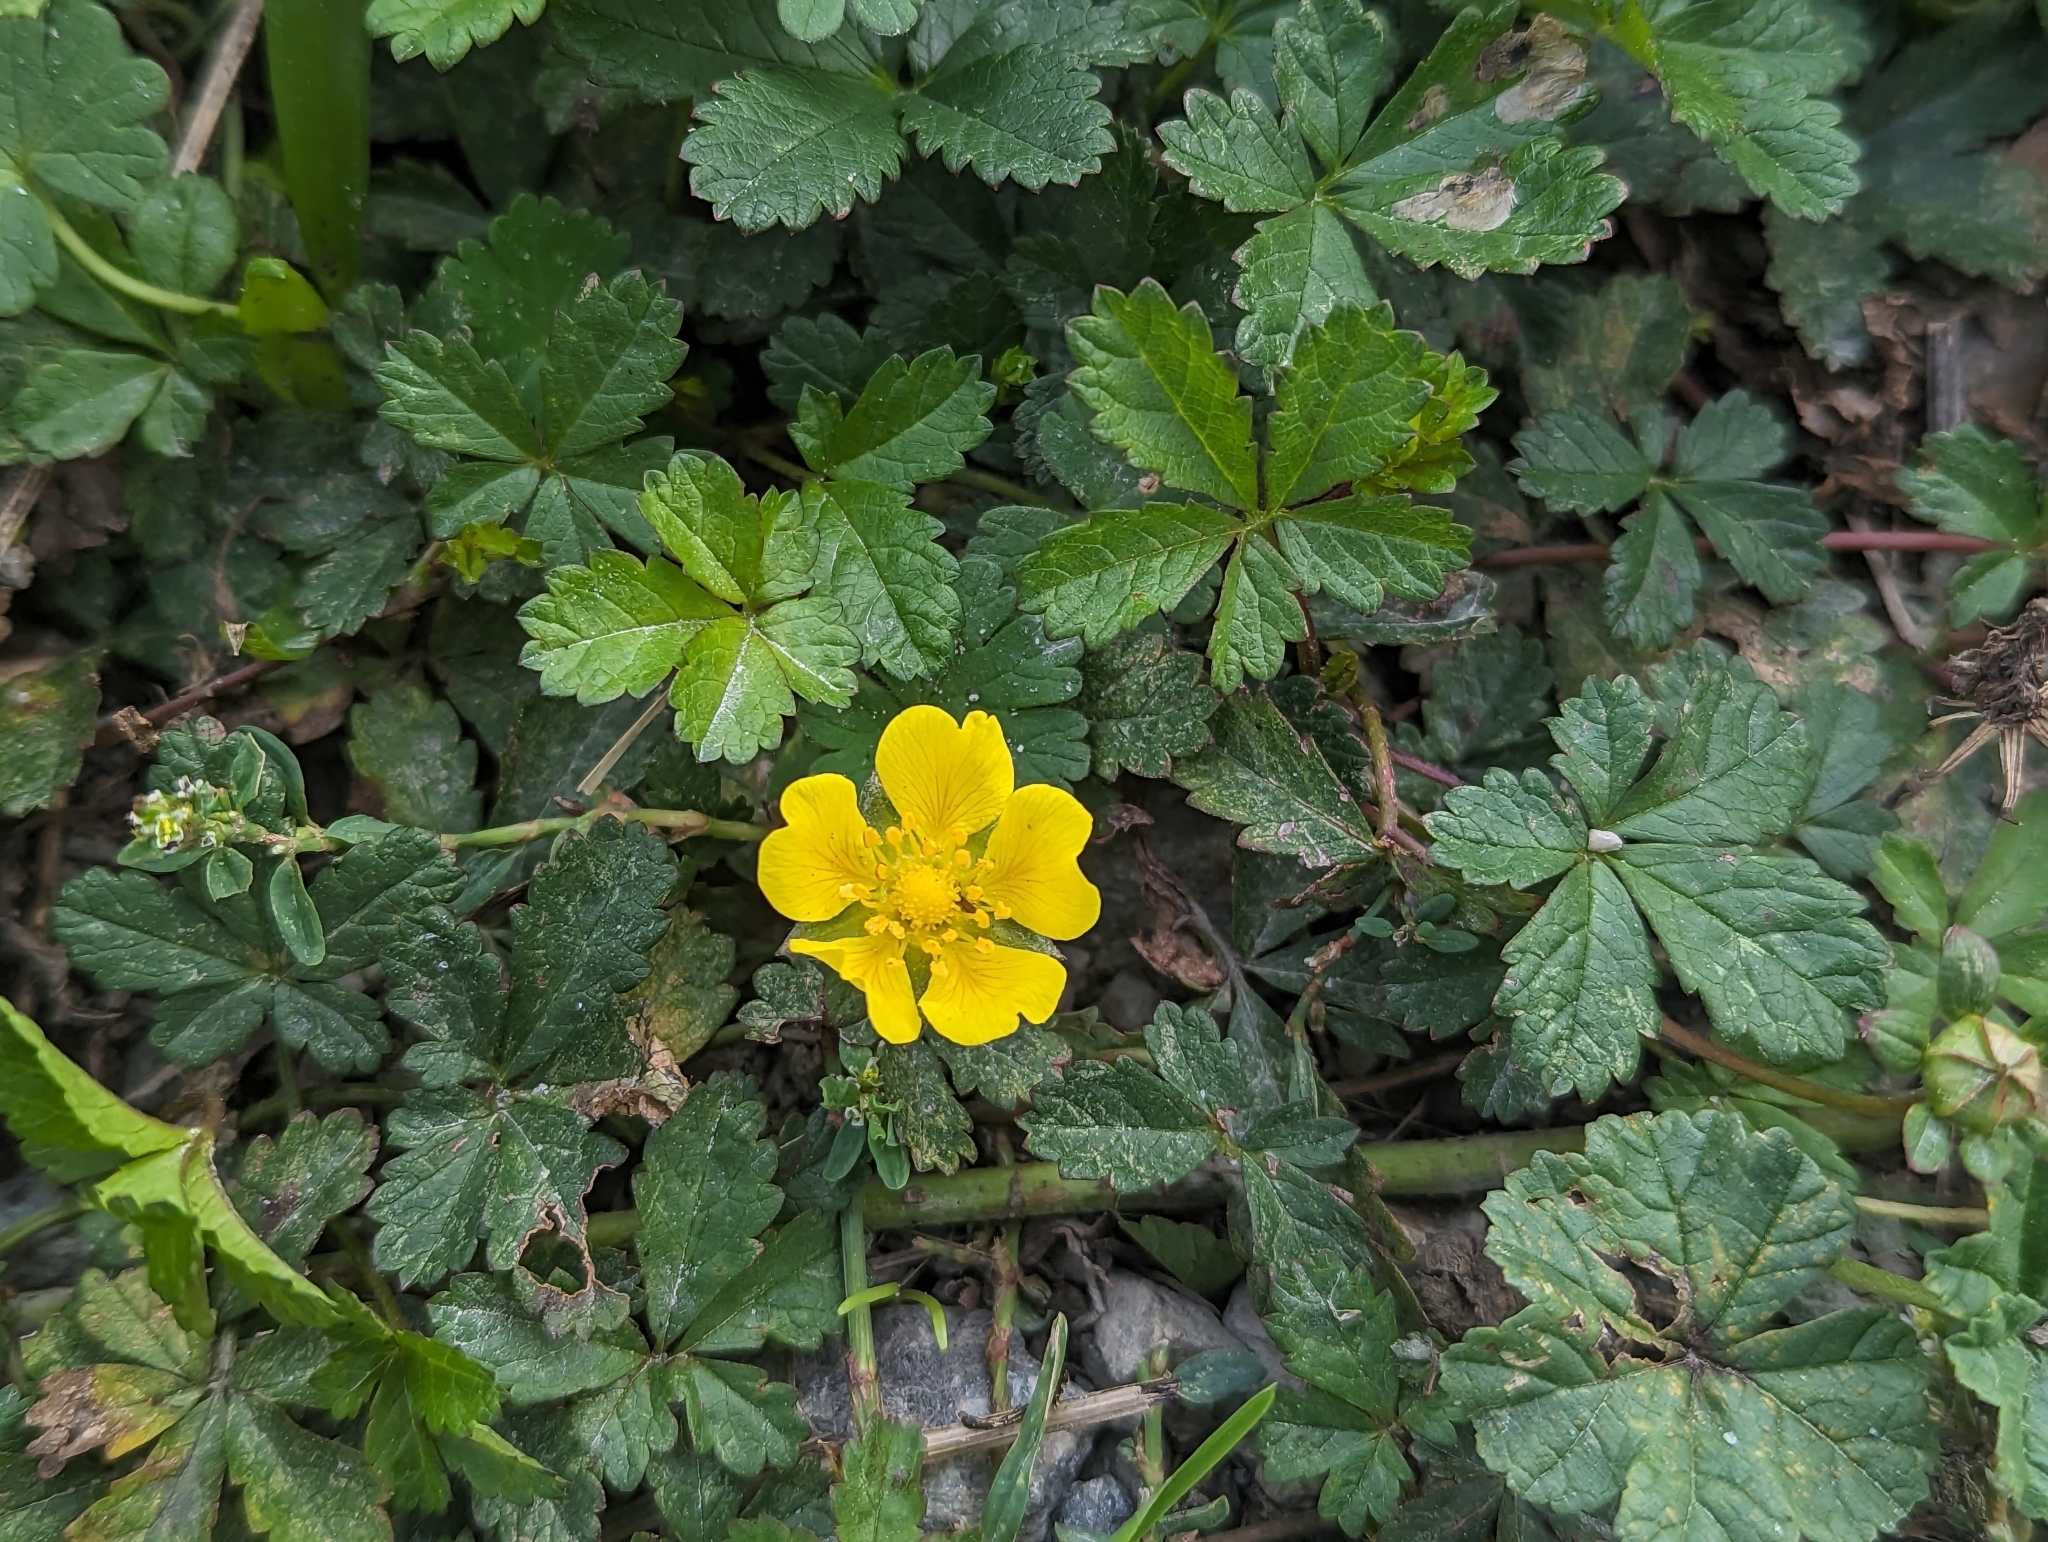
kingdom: Plantae
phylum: Tracheophyta
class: Magnoliopsida
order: Rosales
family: Rosaceae
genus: Potentilla
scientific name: Potentilla reptans
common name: Creeping cinquefoil
